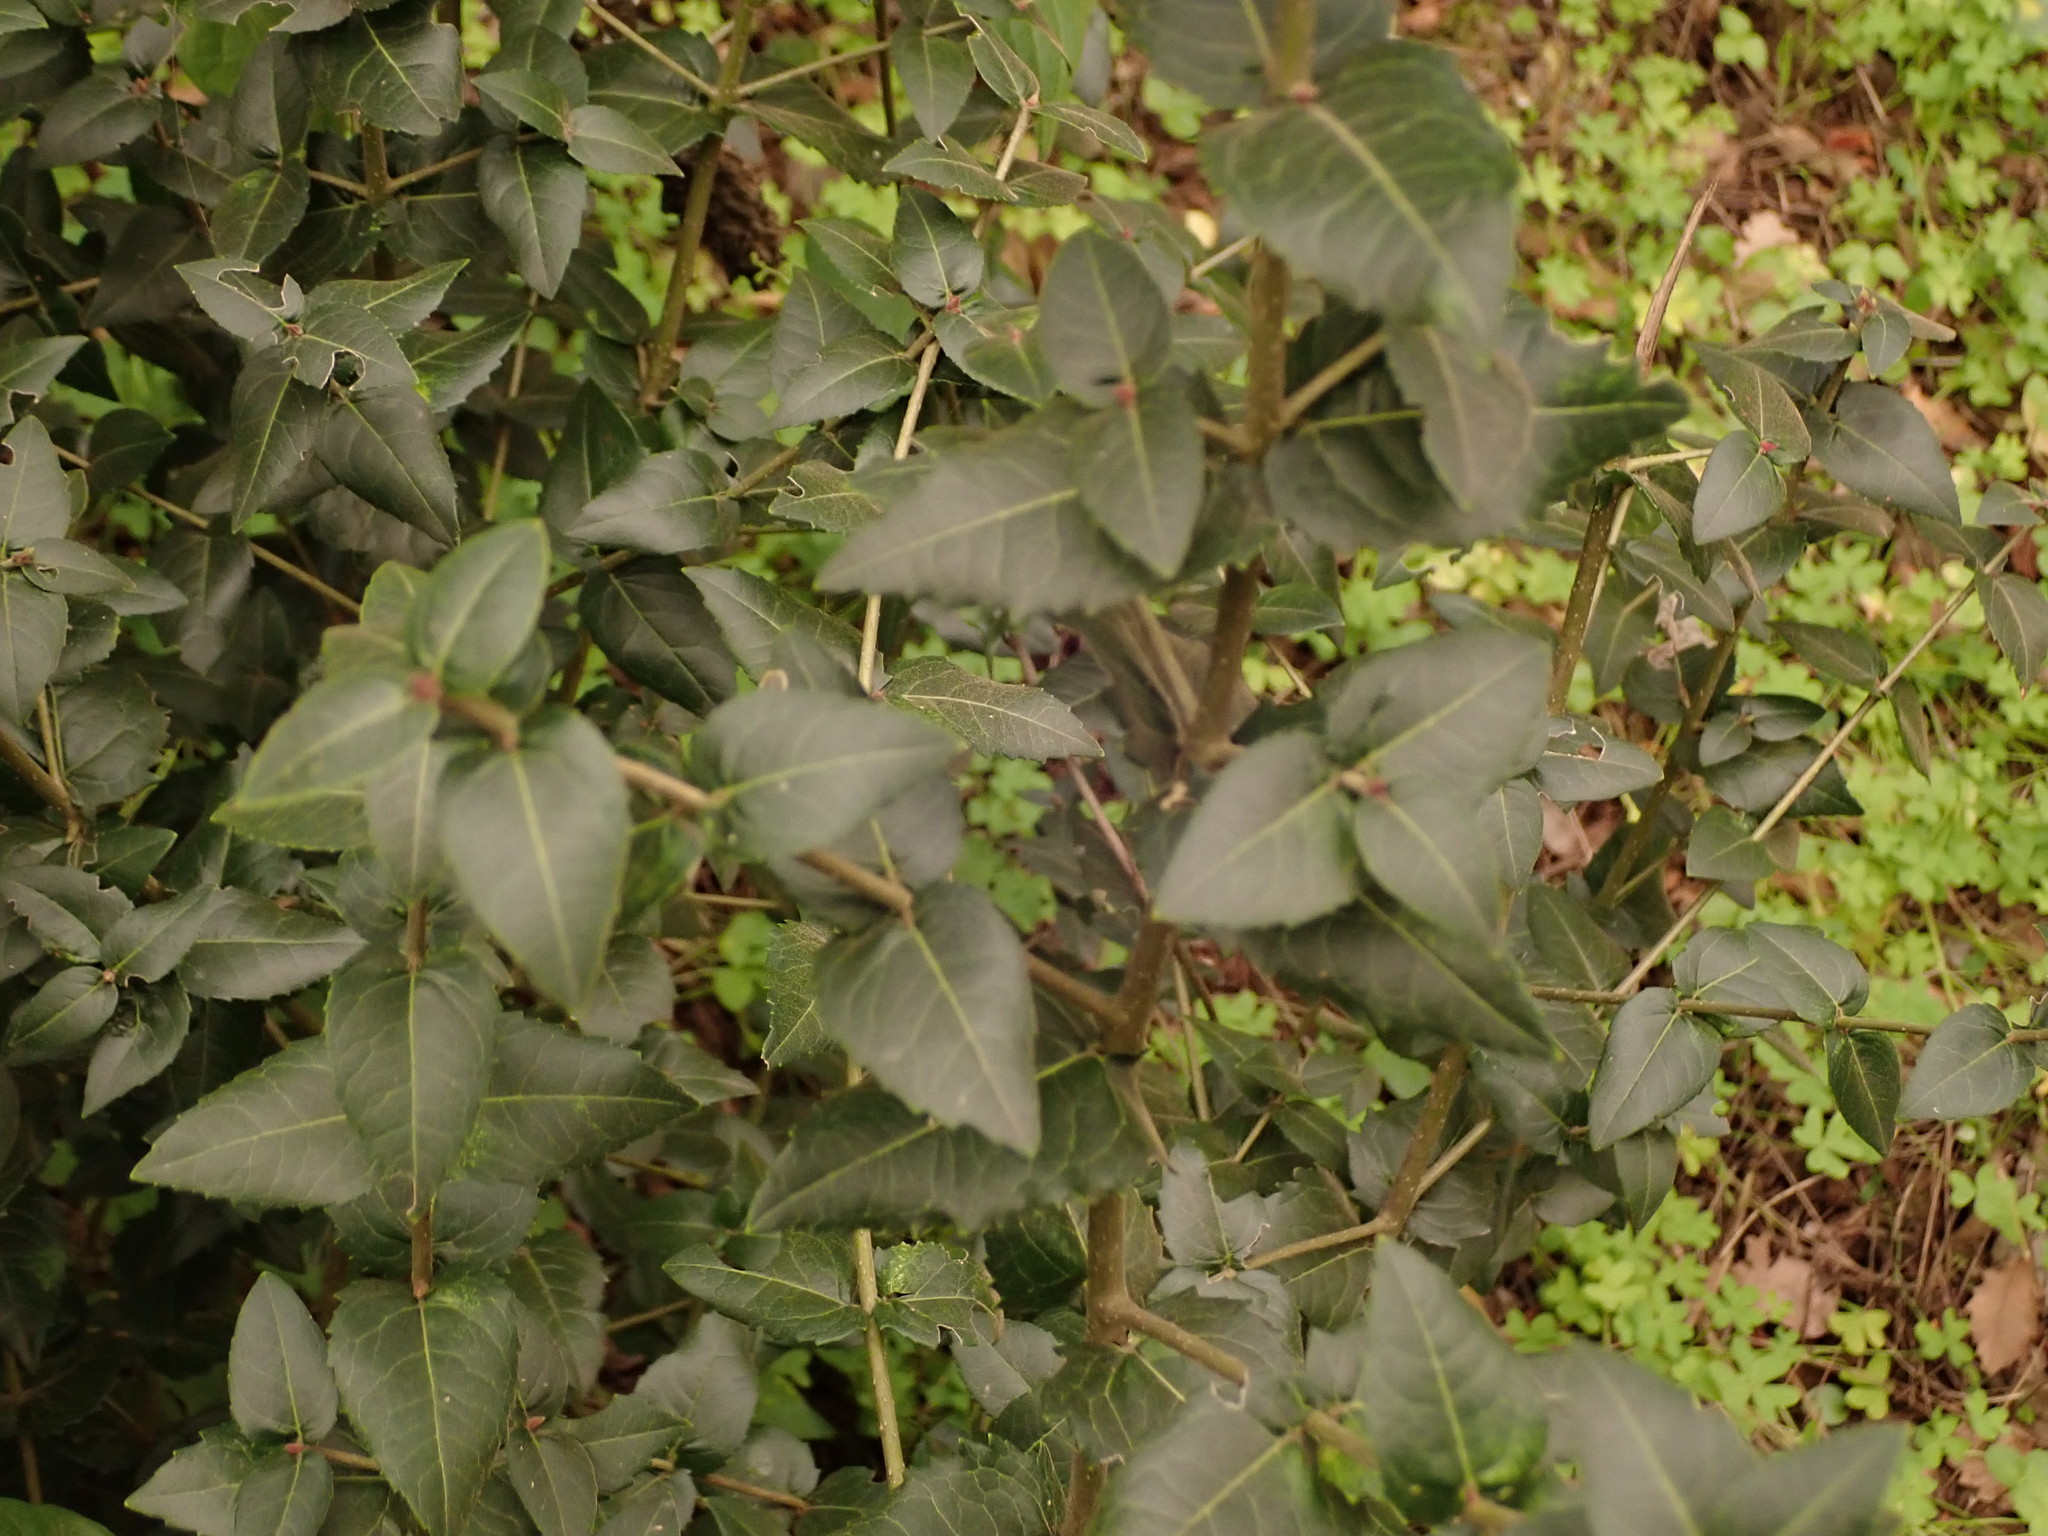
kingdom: Plantae
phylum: Tracheophyta
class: Magnoliopsida
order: Lamiales
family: Oleaceae
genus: Phillyrea
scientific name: Phillyrea latifolia
